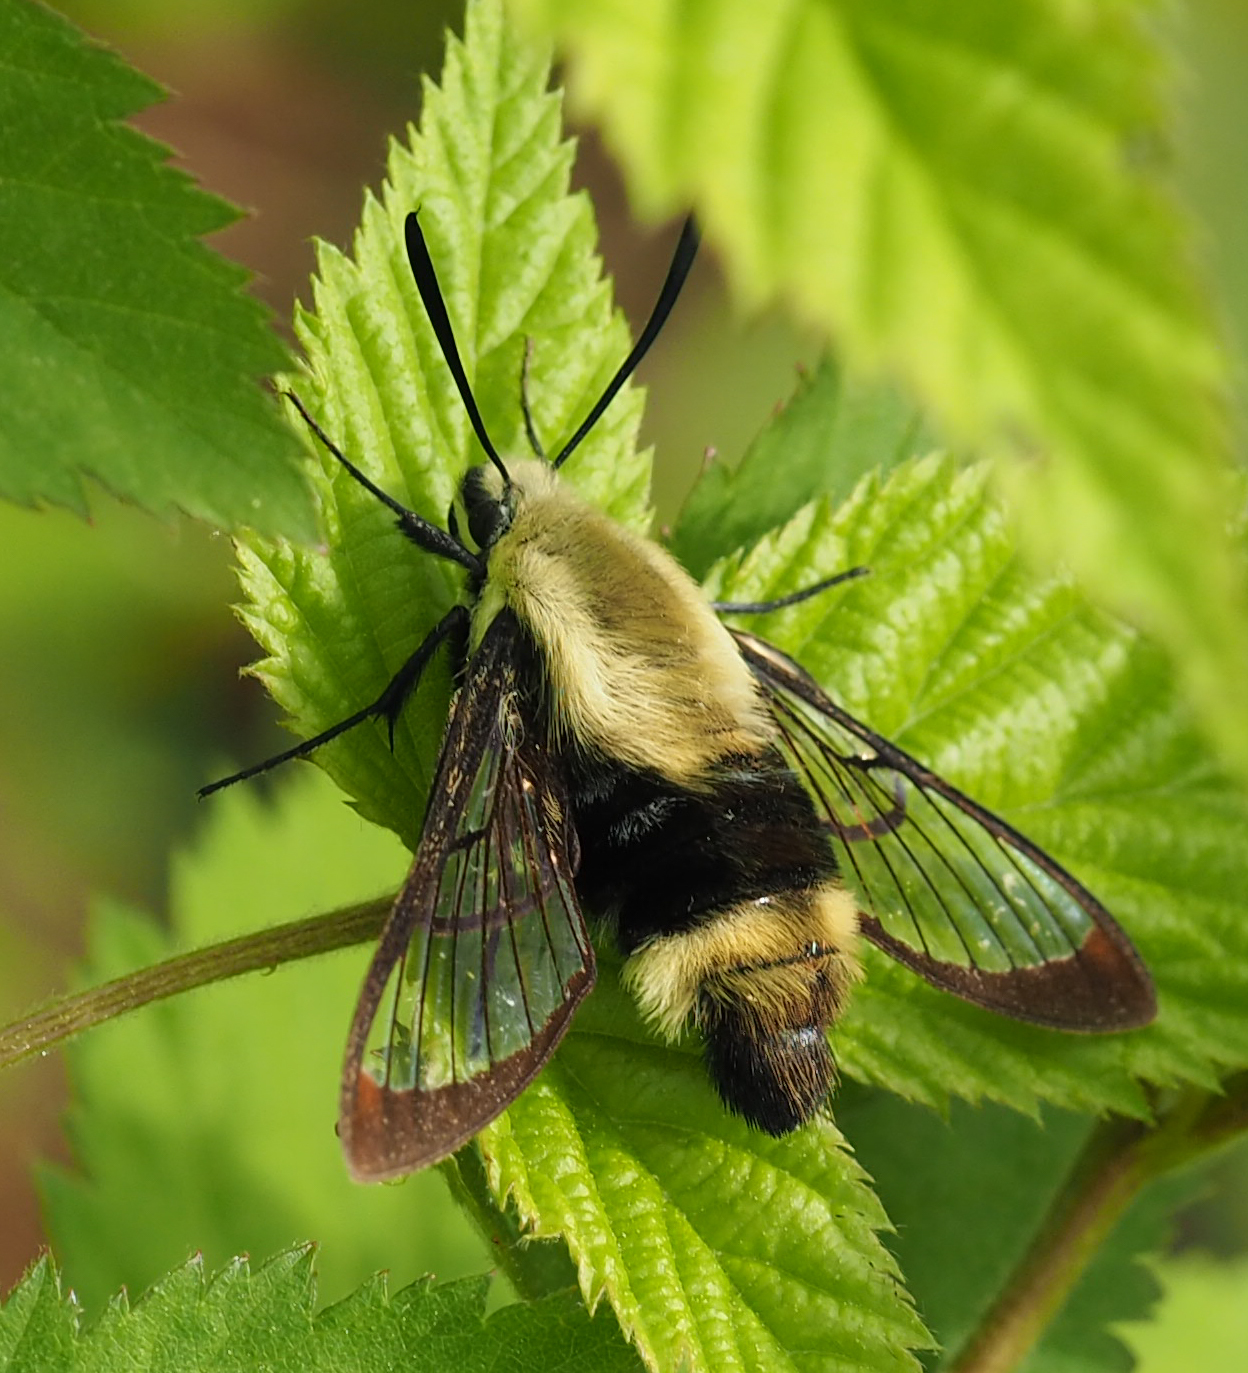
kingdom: Animalia
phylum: Arthropoda
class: Insecta
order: Lepidoptera
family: Sphingidae
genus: Hemaris
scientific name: Hemaris diffinis
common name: Bumblebee moth
